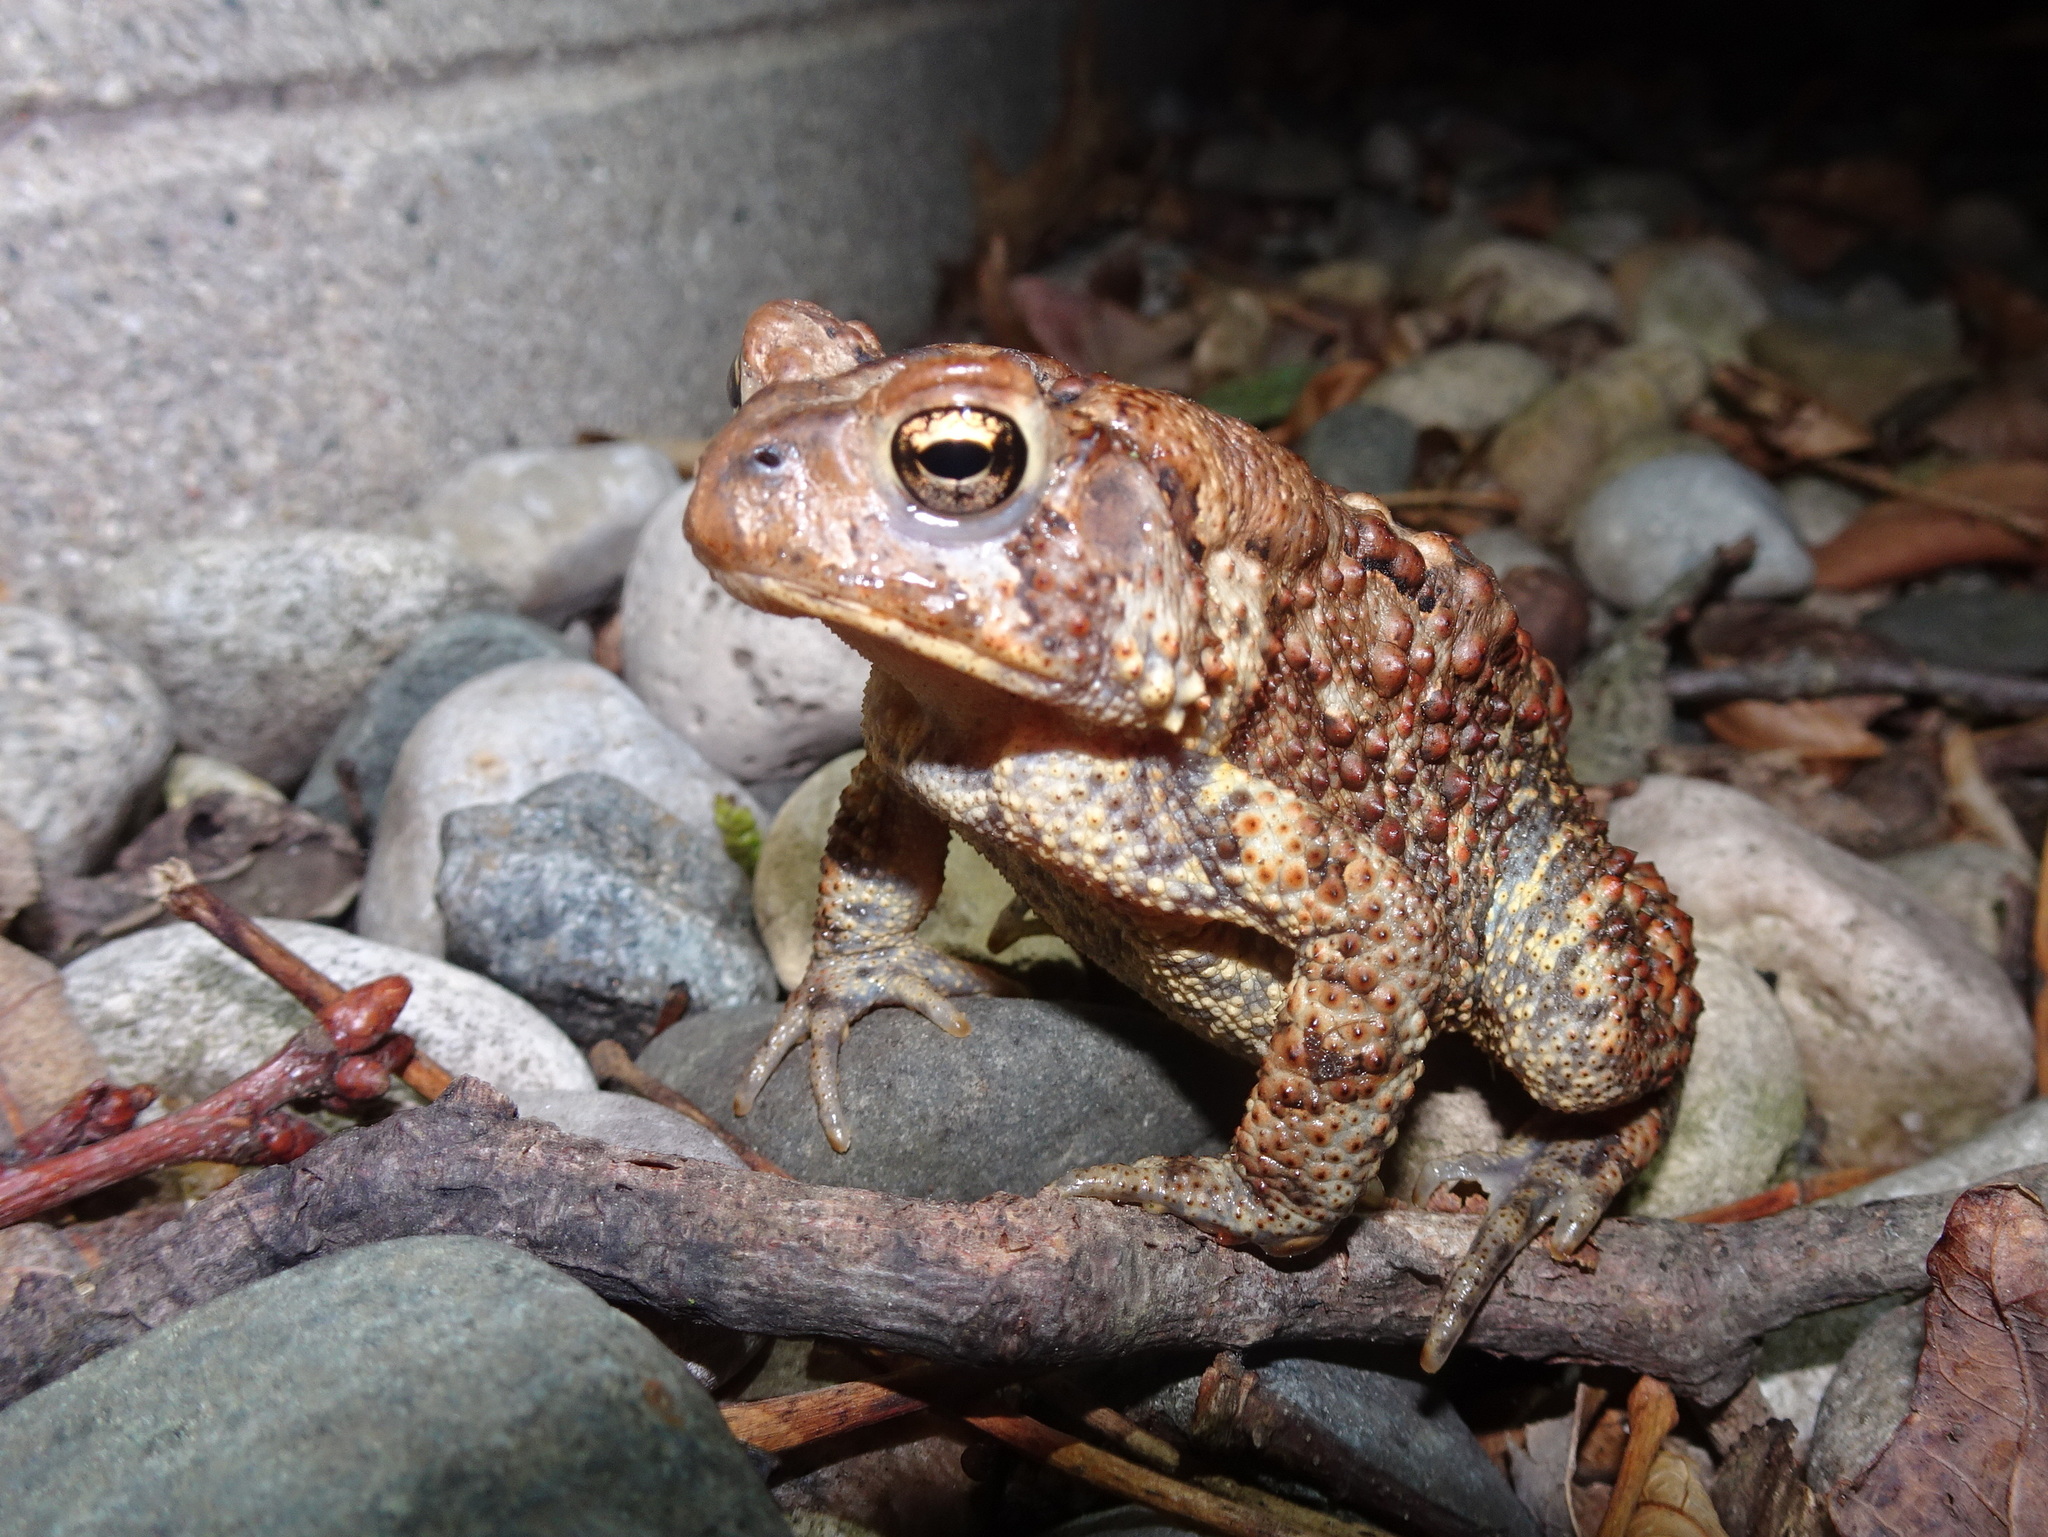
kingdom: Animalia
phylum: Chordata
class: Amphibia
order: Anura
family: Bufonidae
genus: Anaxyrus
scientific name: Anaxyrus americanus
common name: American toad
